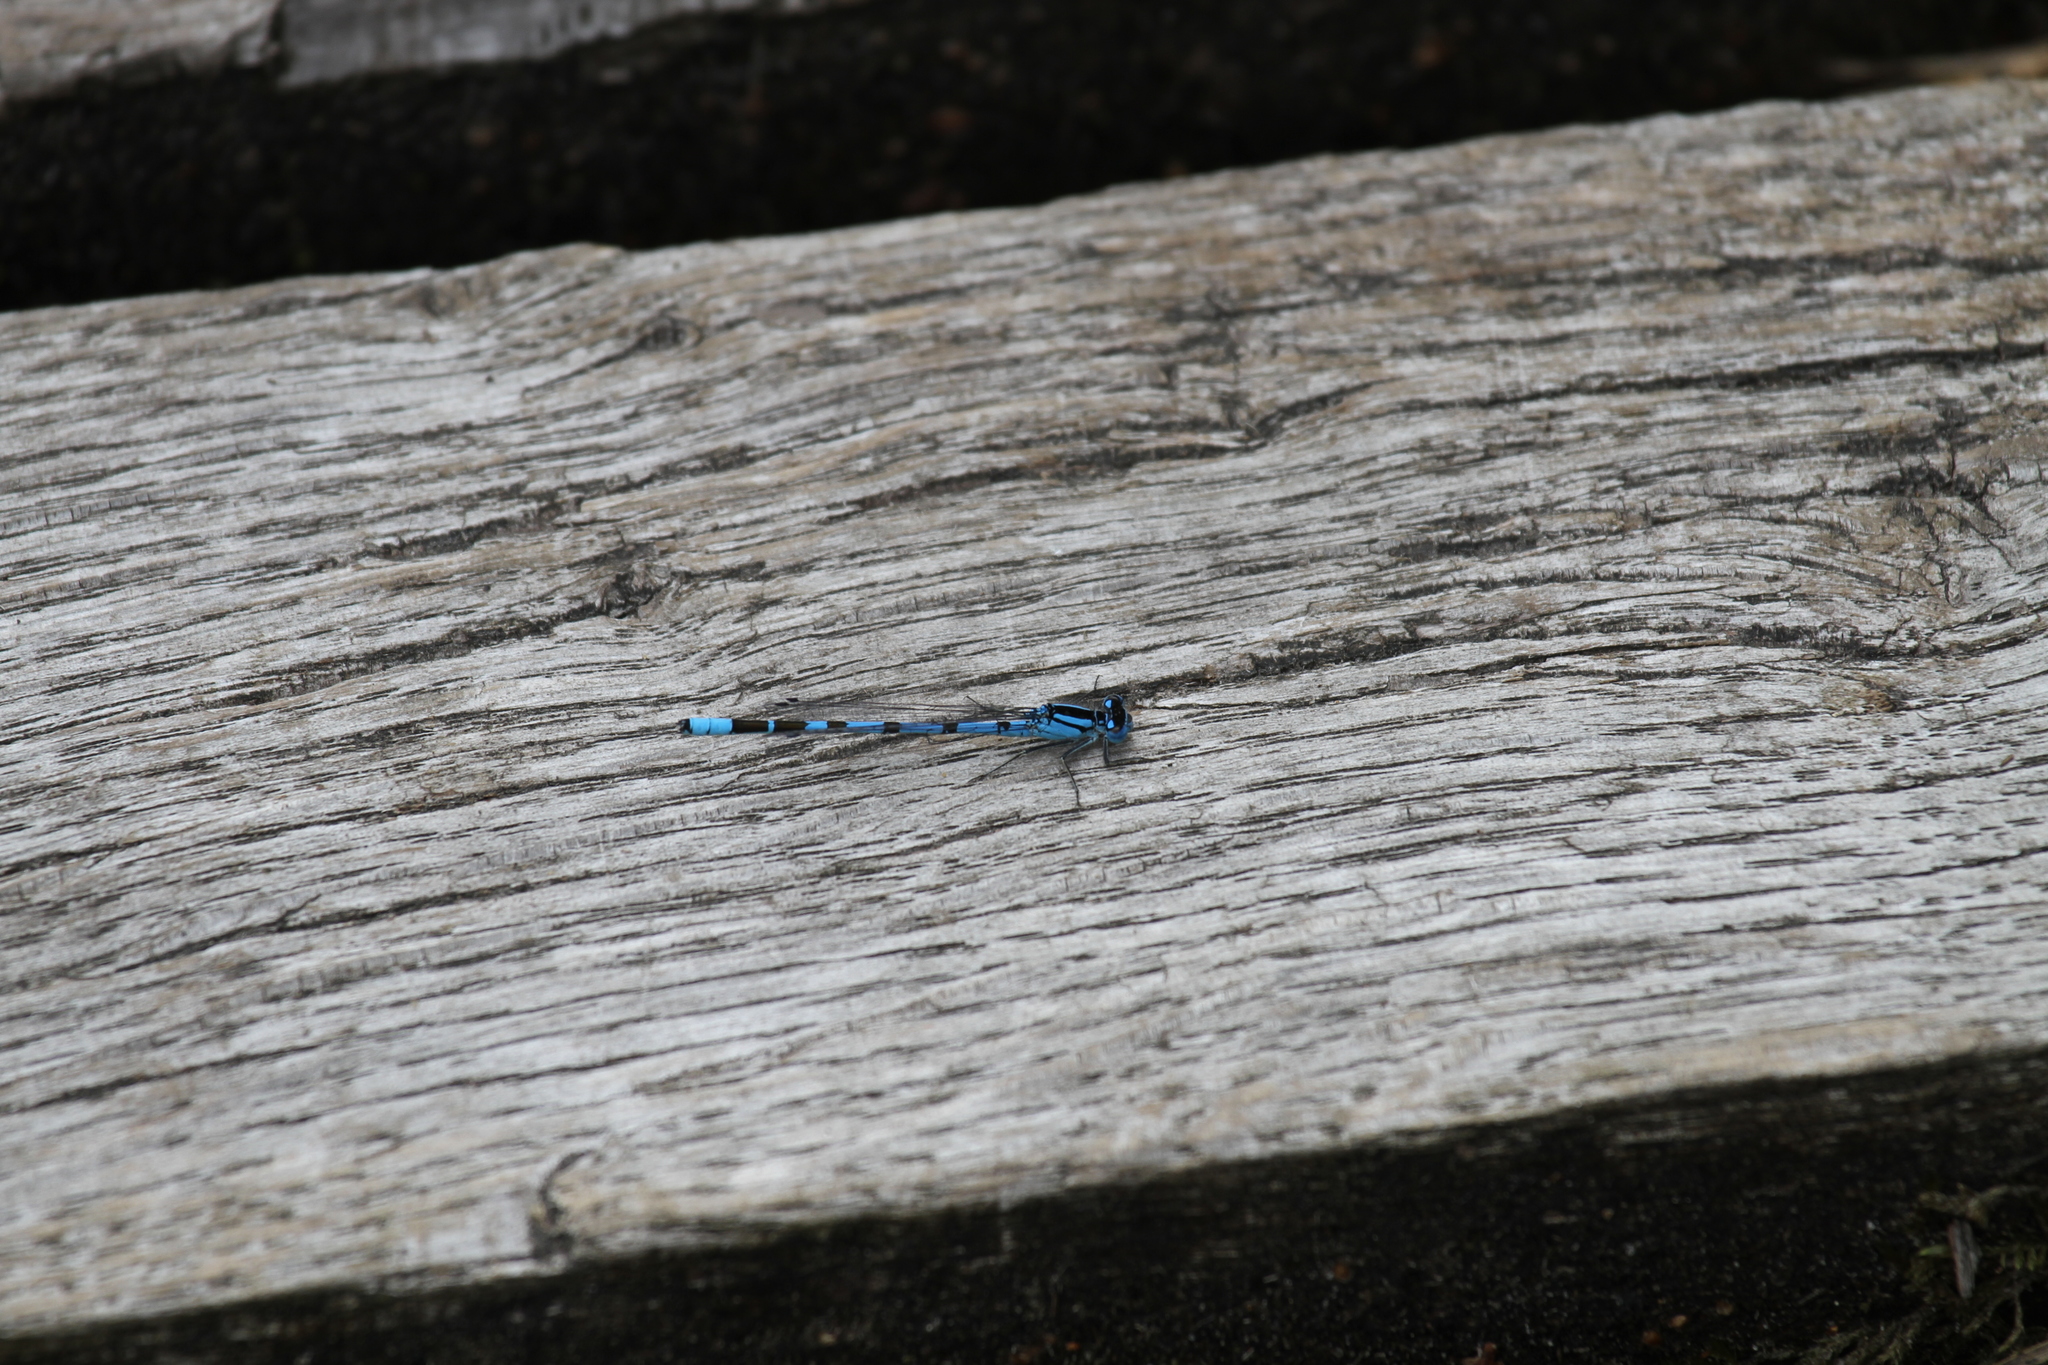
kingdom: Animalia
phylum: Arthropoda
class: Insecta
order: Odonata
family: Coenagrionidae
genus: Enallagma
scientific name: Enallagma cyathigerum
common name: Common blue damselfly
